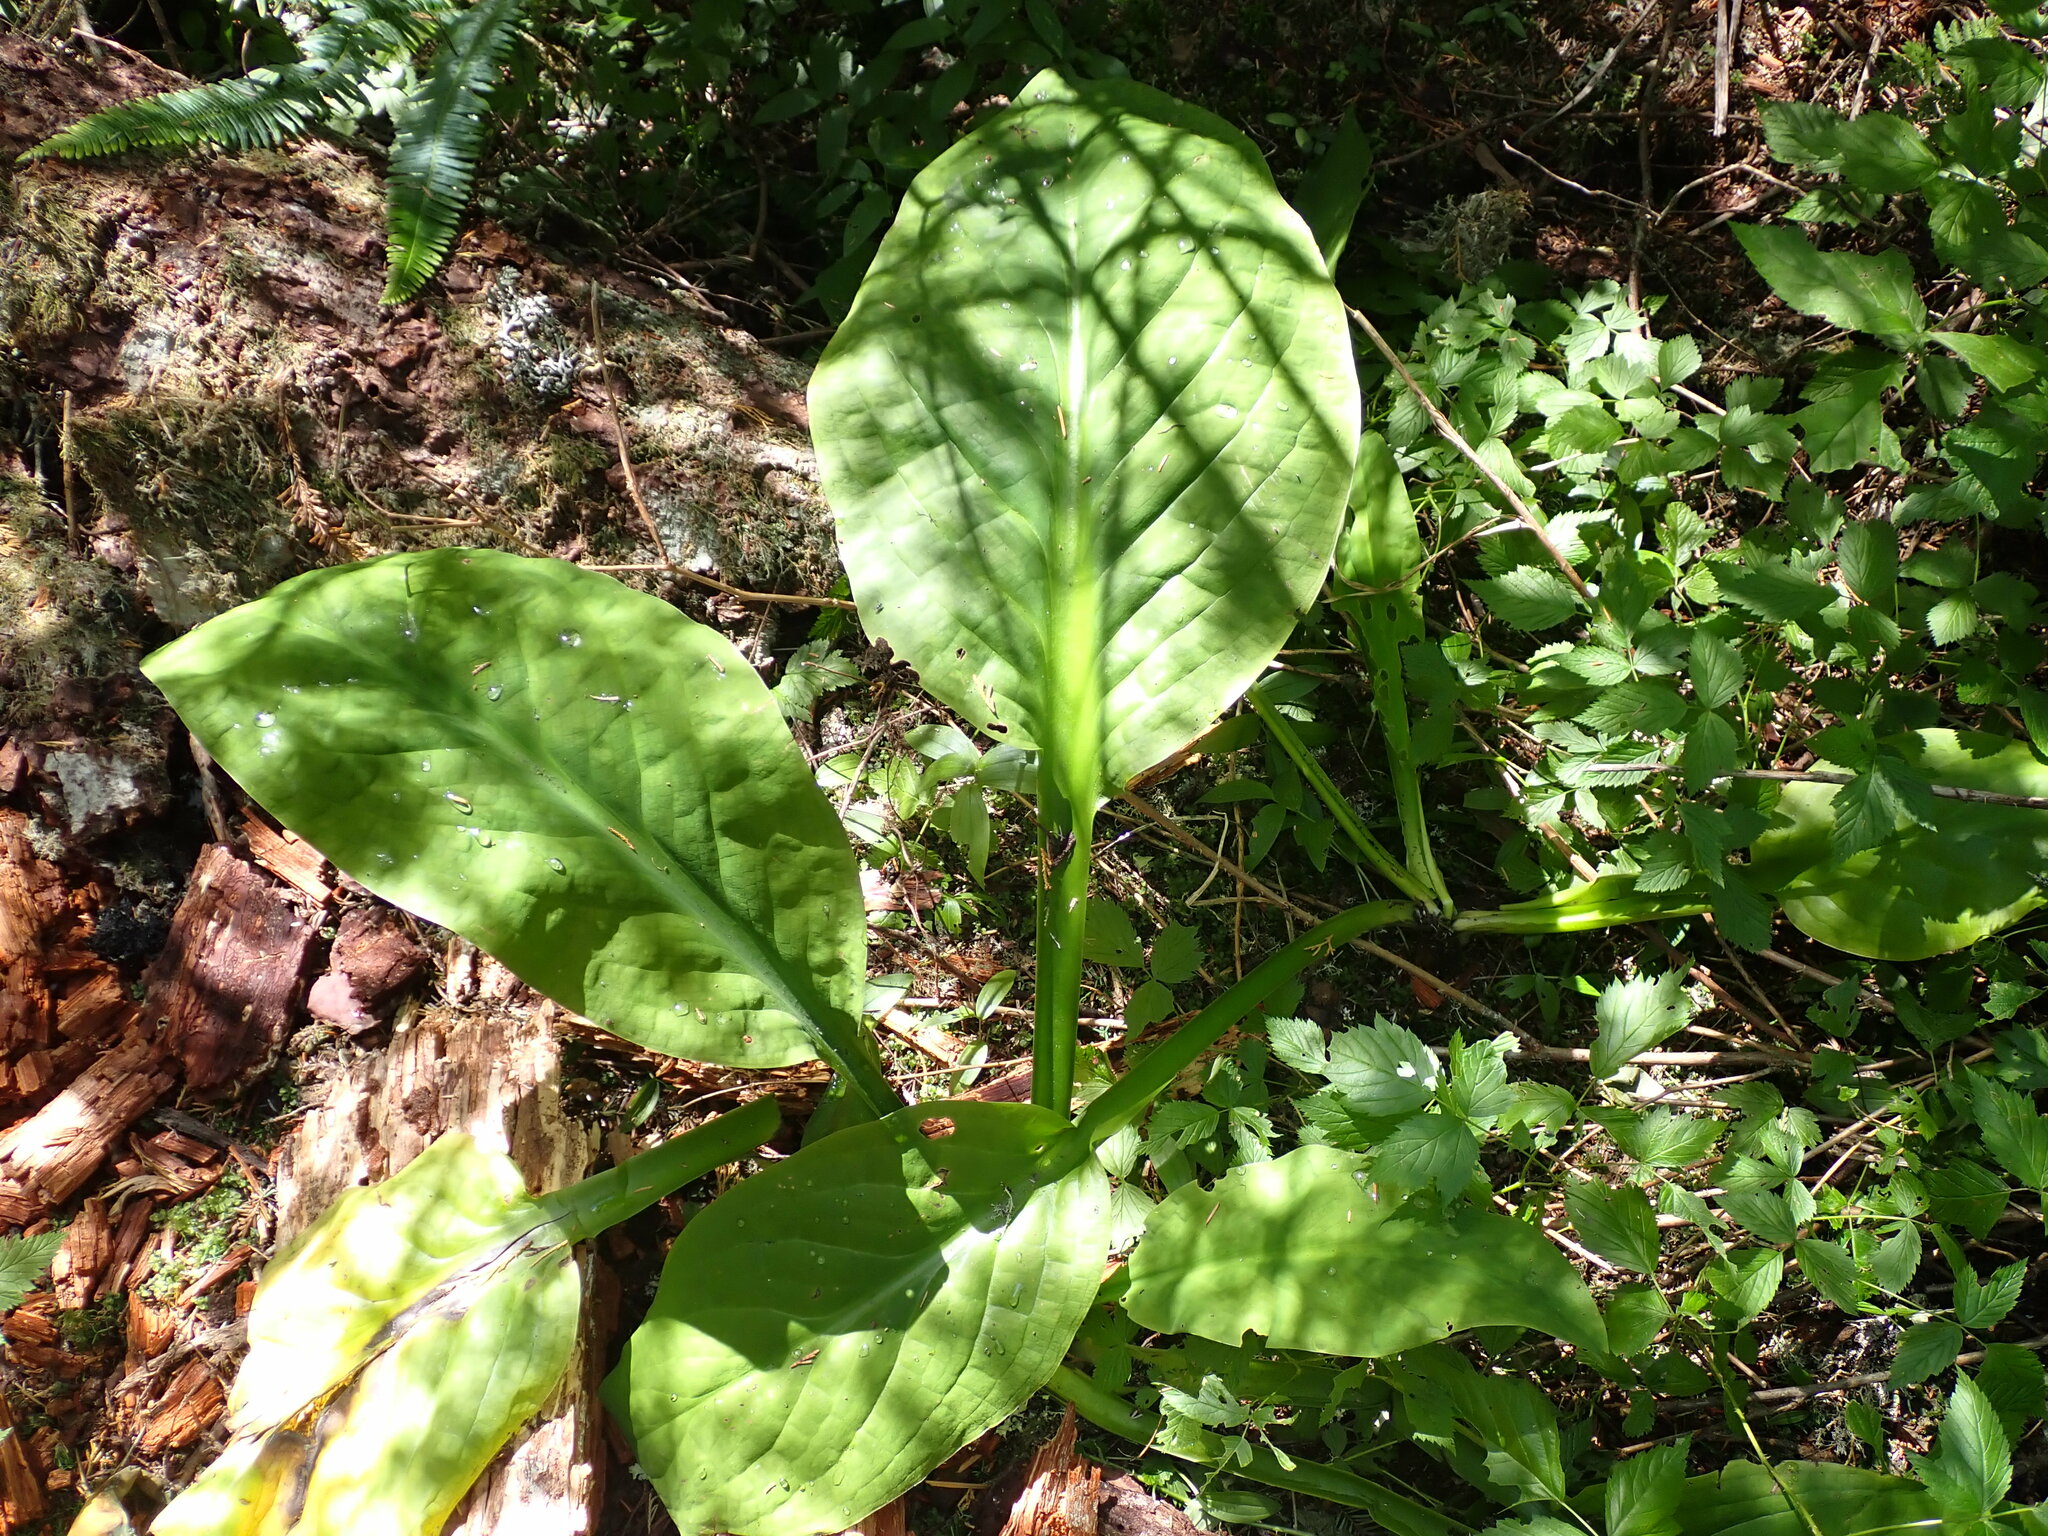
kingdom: Plantae
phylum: Tracheophyta
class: Liliopsida
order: Alismatales
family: Araceae
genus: Lysichiton
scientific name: Lysichiton americanus
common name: American skunk cabbage
